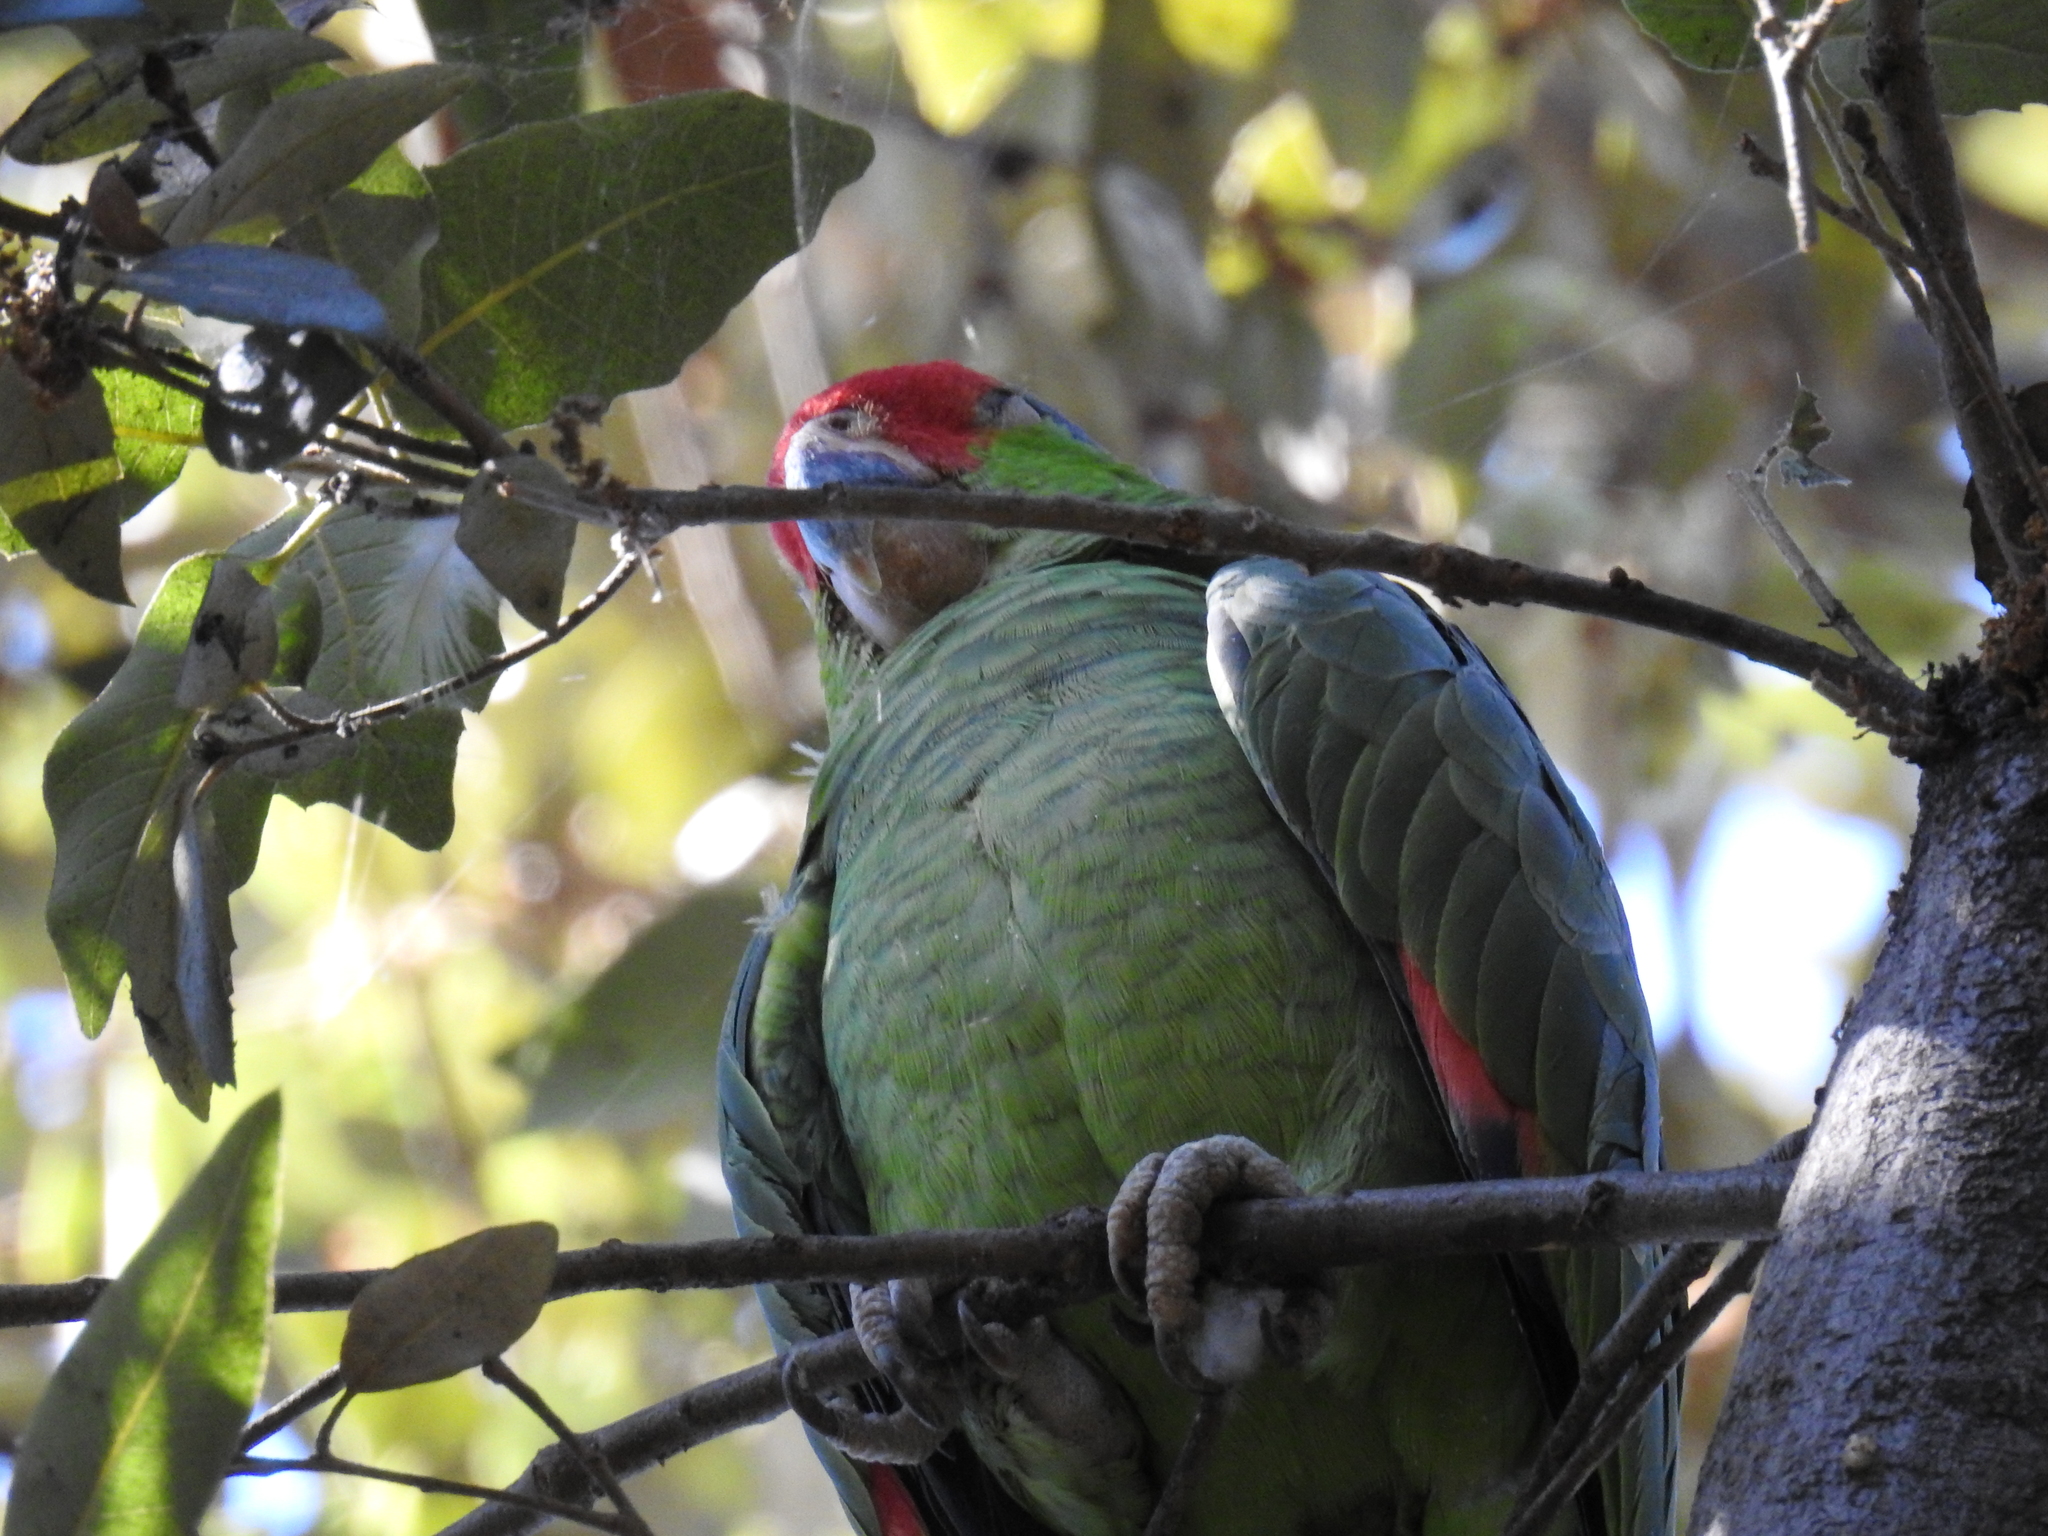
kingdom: Animalia
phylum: Chordata
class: Aves
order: Psittaciformes
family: Psittacidae
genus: Amazona
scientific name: Amazona viridigenalis
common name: Red-crowned amazon
